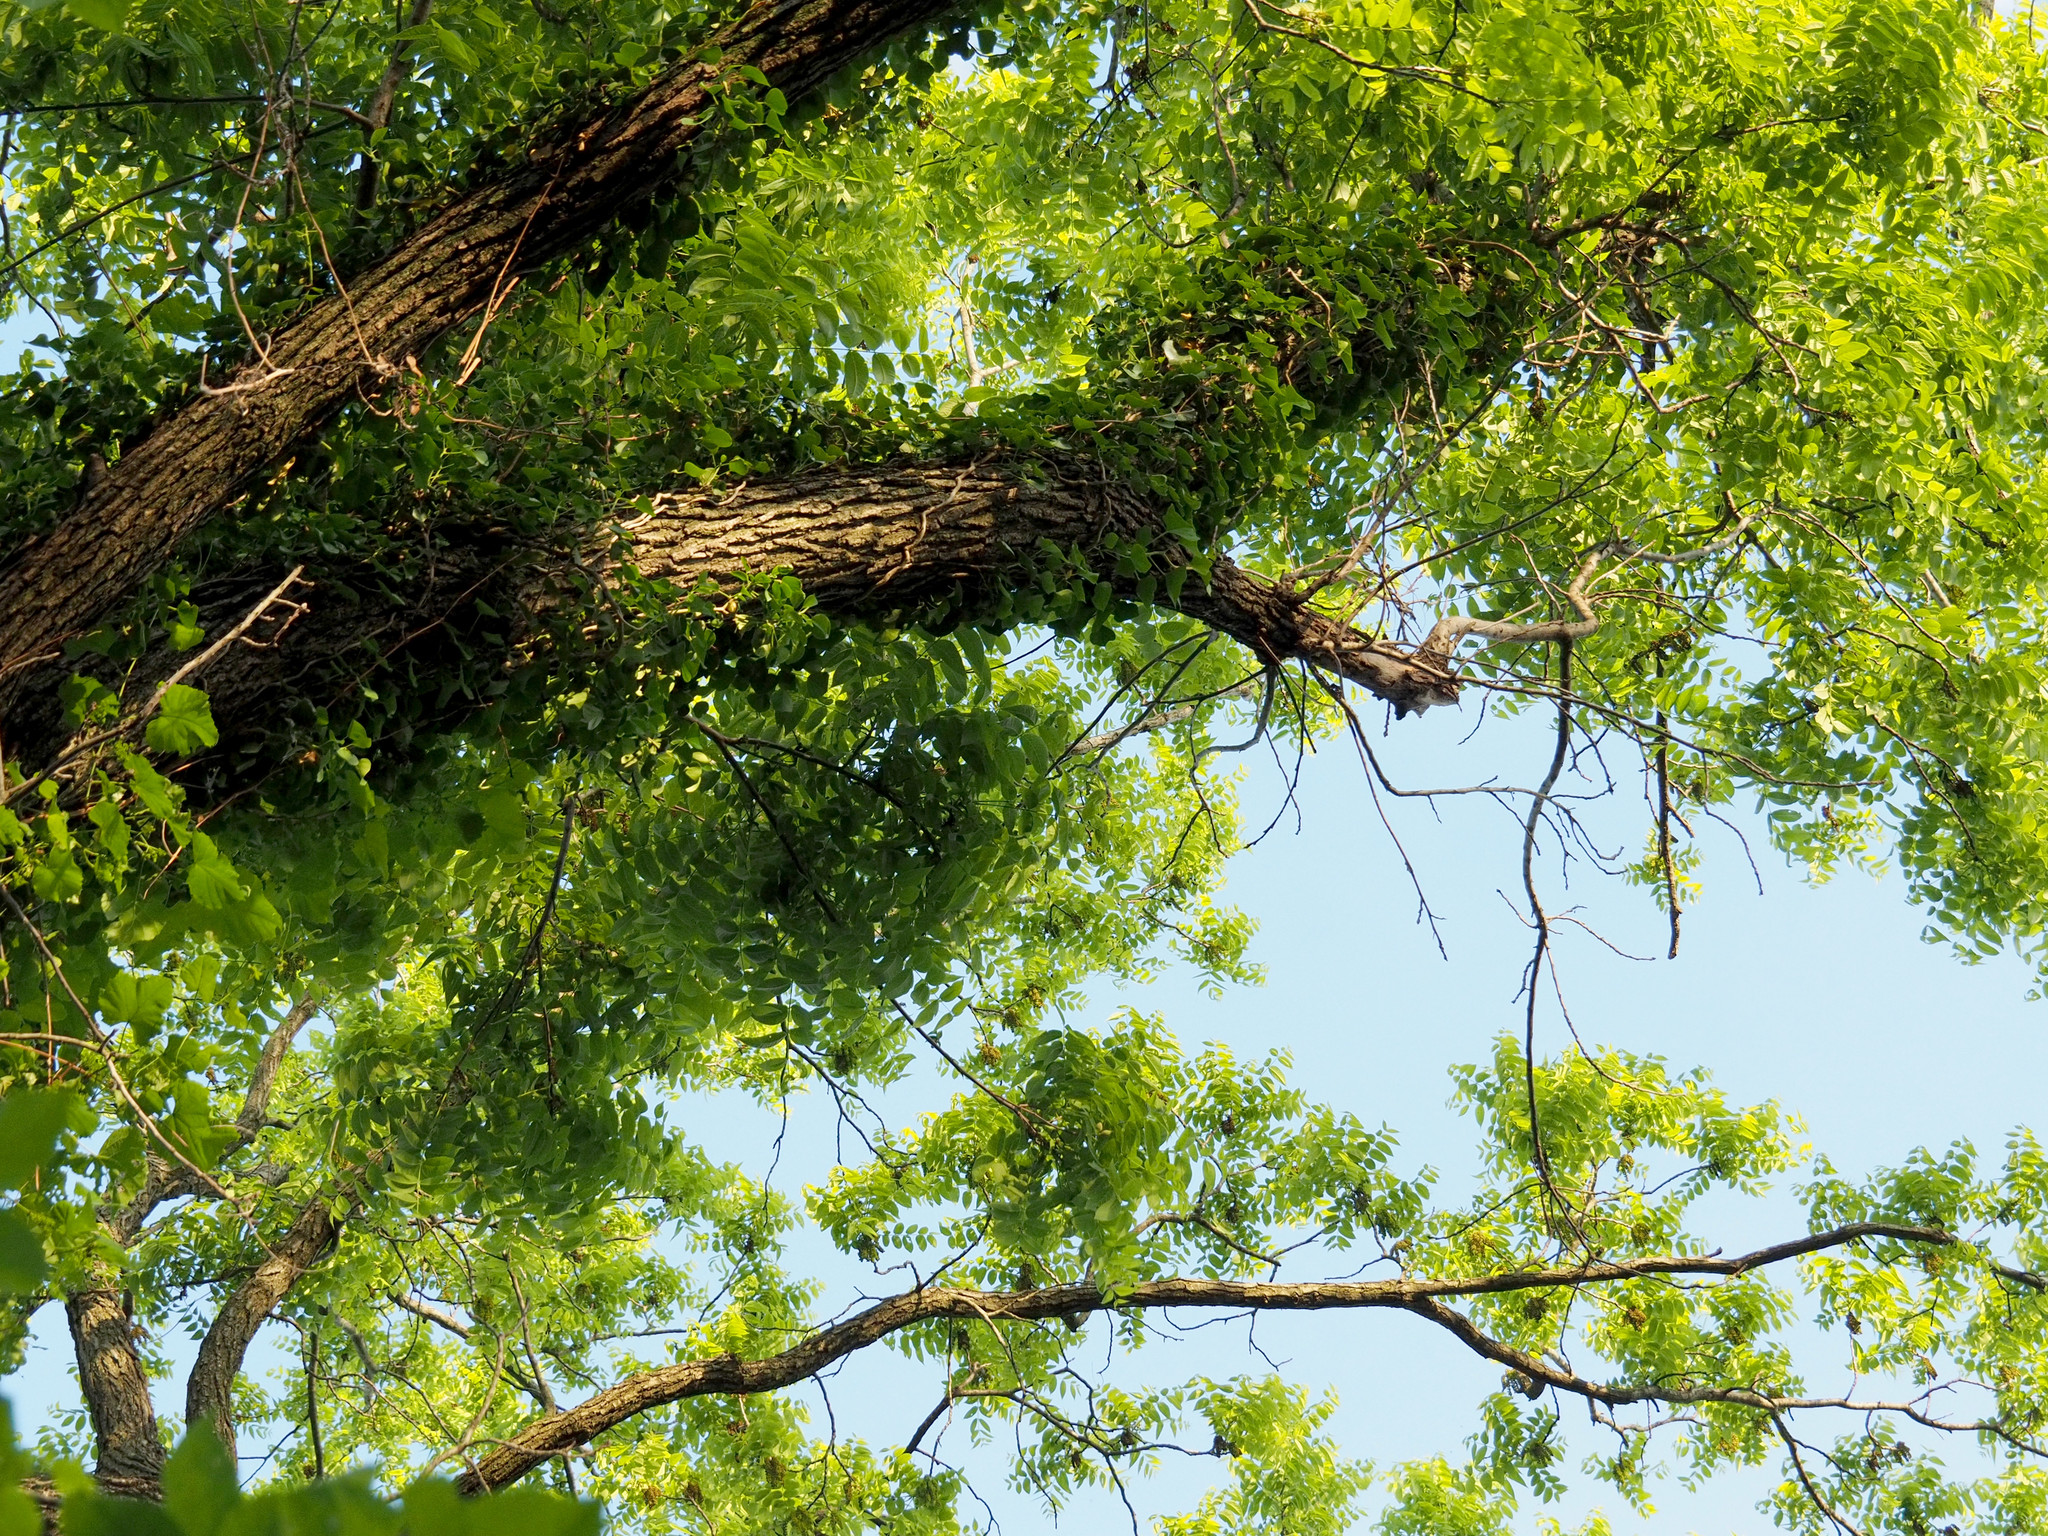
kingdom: Plantae
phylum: Tracheophyta
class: Magnoliopsida
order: Fagales
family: Juglandaceae
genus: Juglans
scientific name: Juglans nigra
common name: Black walnut
